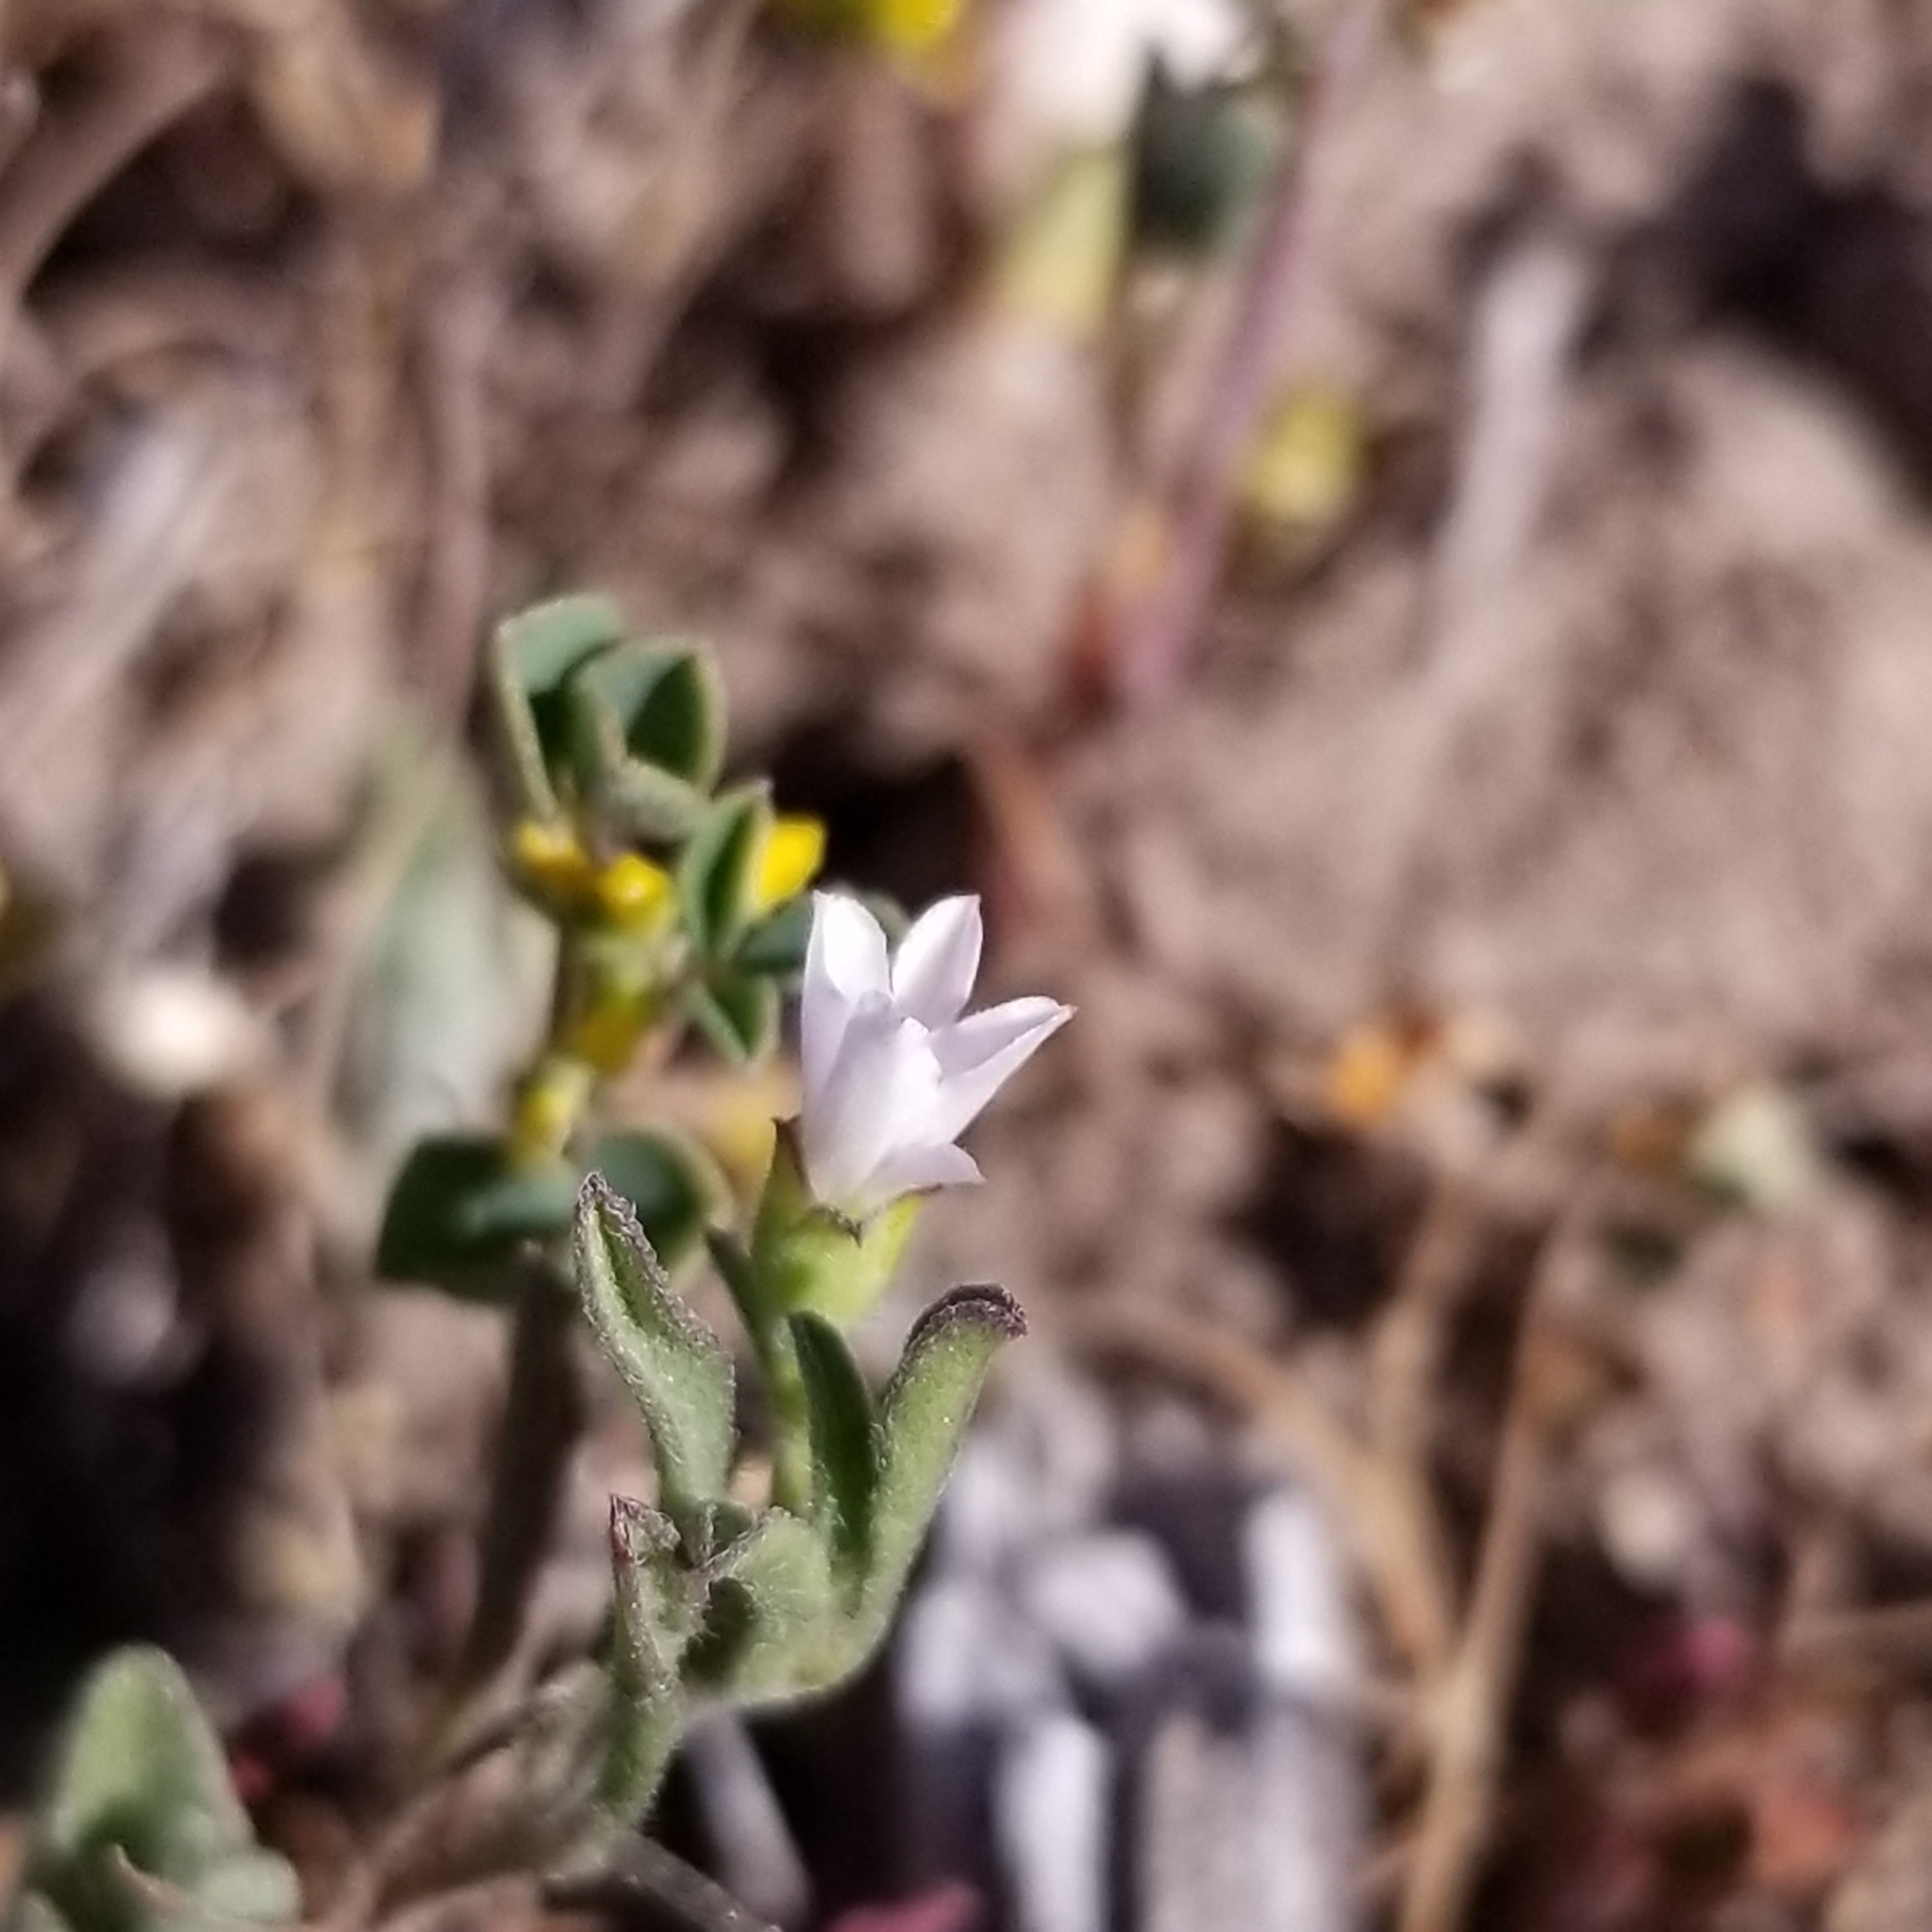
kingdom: Plantae
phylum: Tracheophyta
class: Magnoliopsida
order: Solanales
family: Convolvulaceae
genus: Convolvulus
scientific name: Convolvulus simulans
